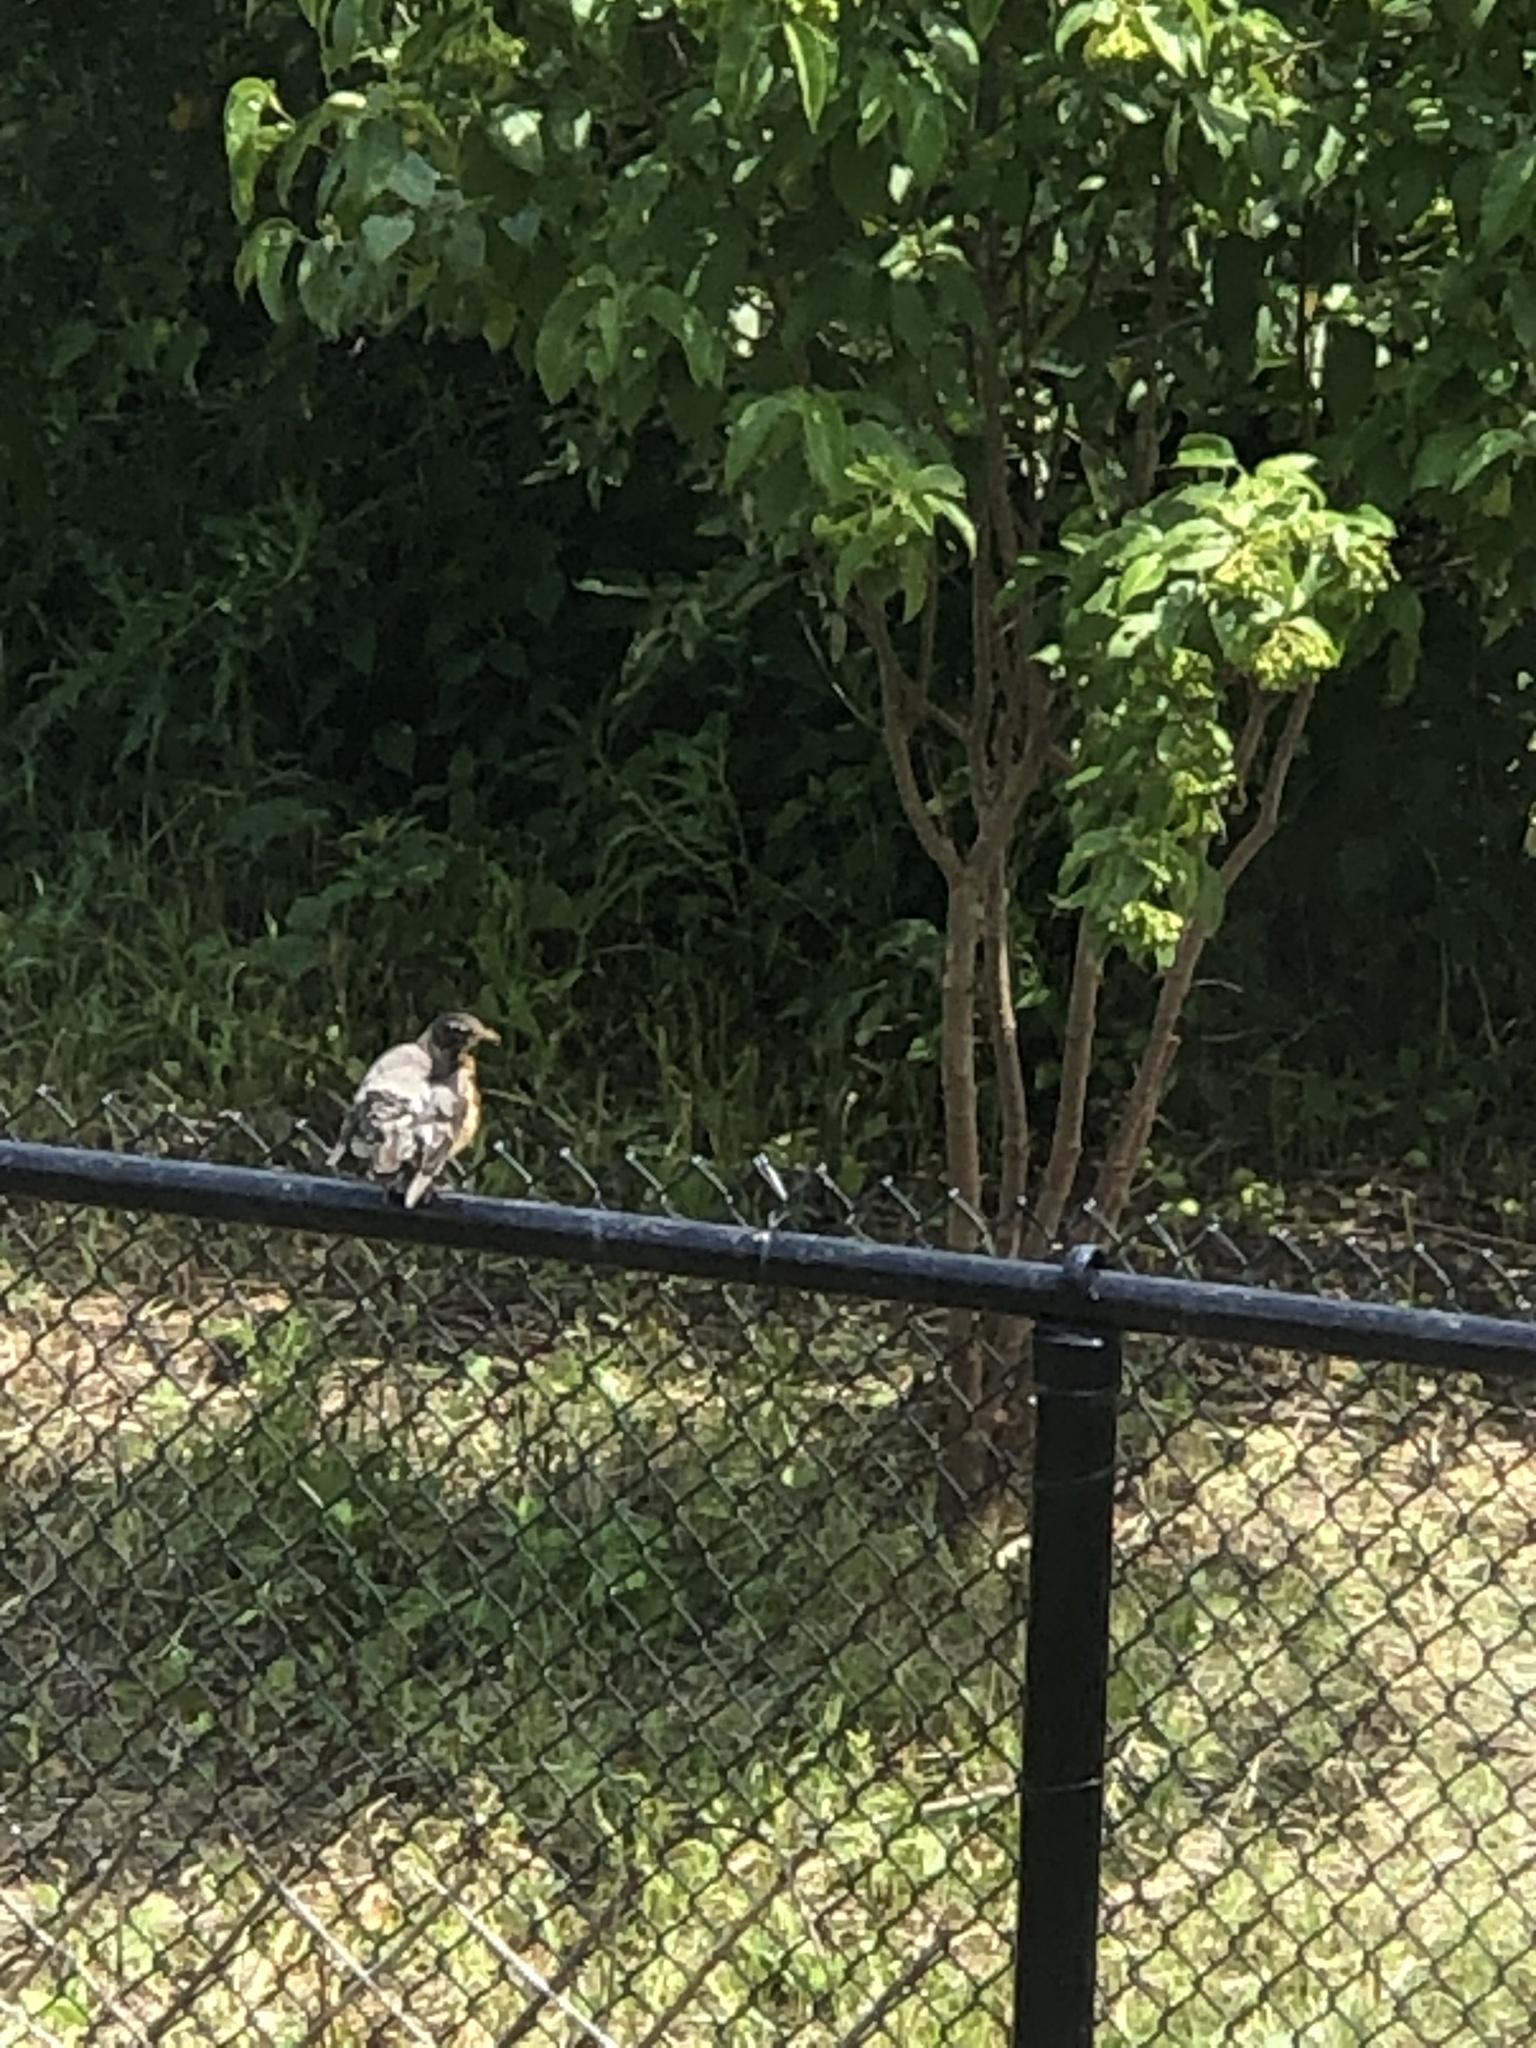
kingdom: Animalia
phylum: Chordata
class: Aves
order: Passeriformes
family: Turdidae
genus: Turdus
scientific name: Turdus migratorius
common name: American robin
